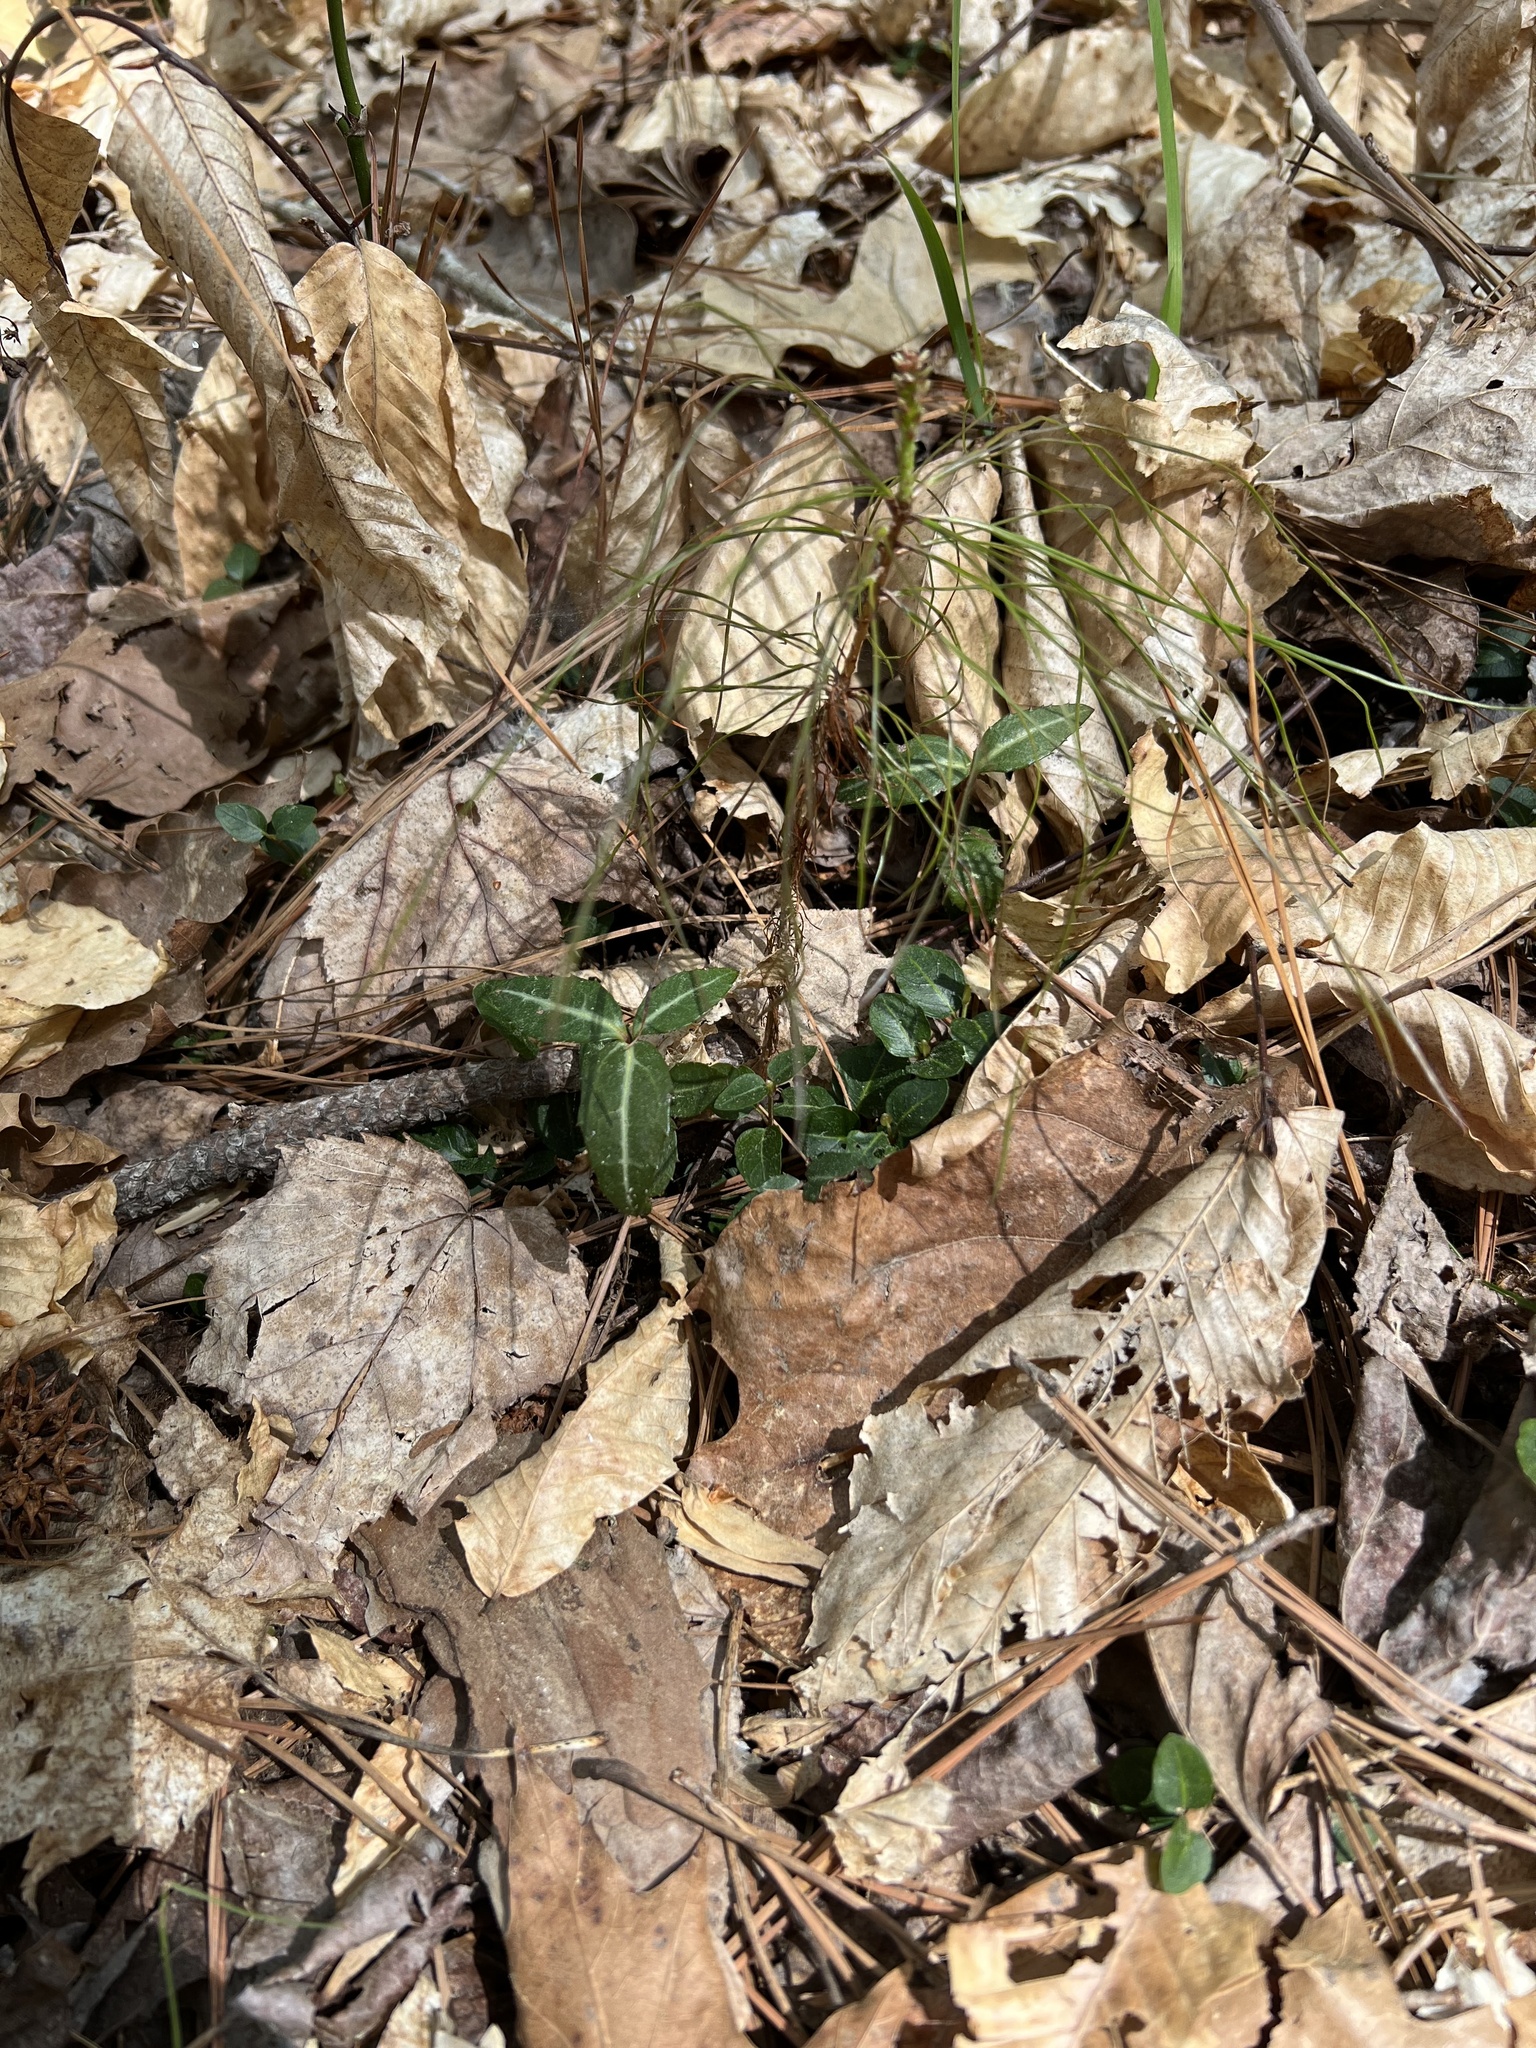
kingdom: Plantae
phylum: Tracheophyta
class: Magnoliopsida
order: Ericales
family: Ericaceae
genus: Chimaphila
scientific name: Chimaphila maculata
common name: Spotted pipsissewa
